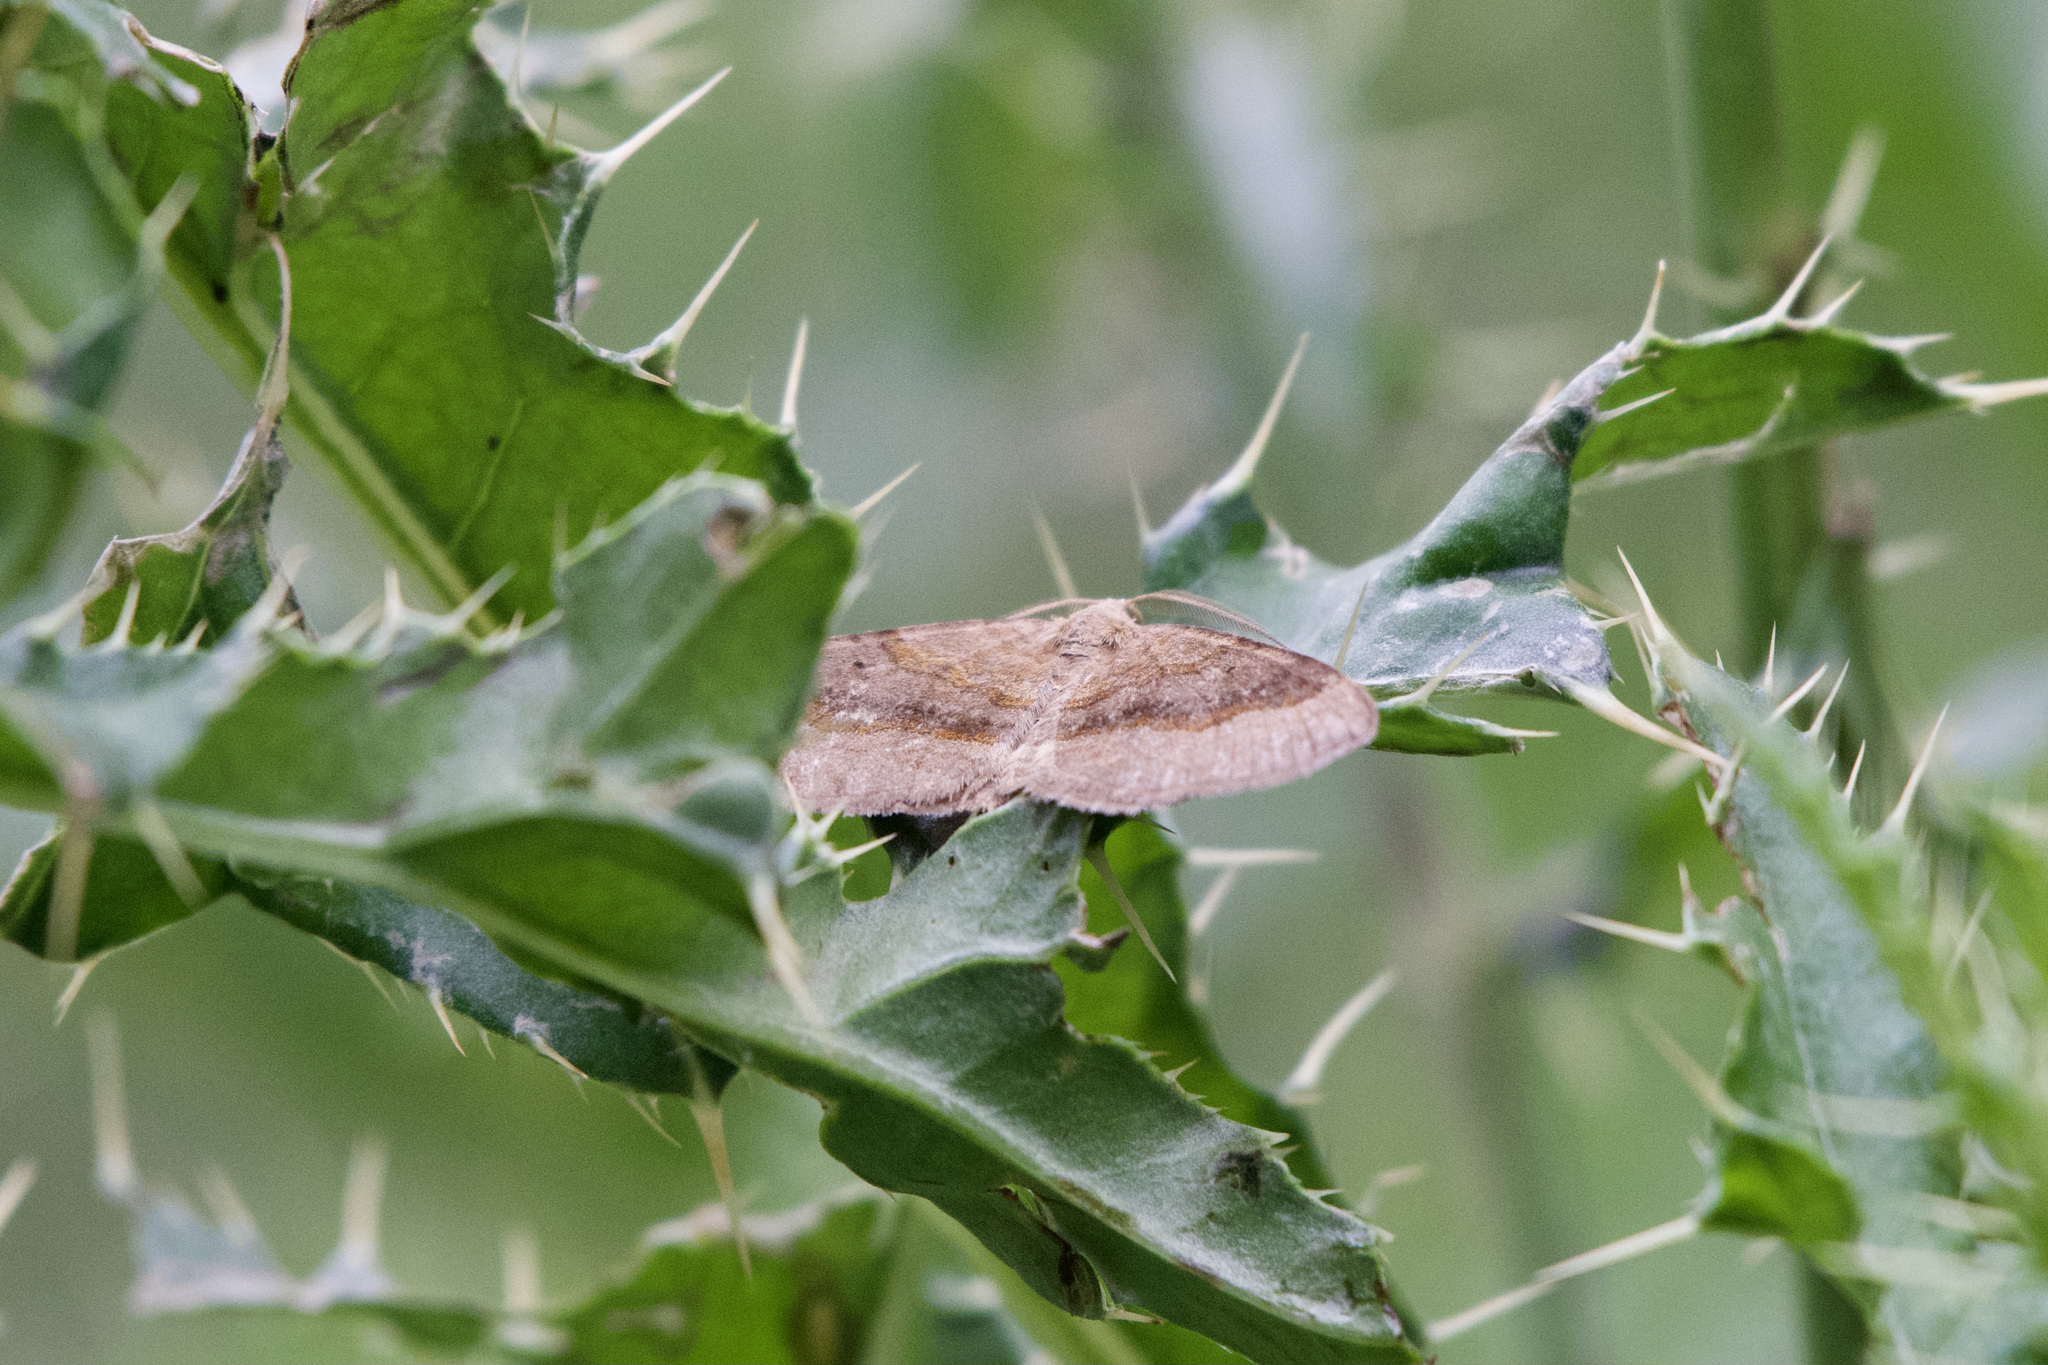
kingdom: Animalia
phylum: Arthropoda
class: Insecta
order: Lepidoptera
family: Geometridae
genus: Scotopteryx
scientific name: Scotopteryx chenopodiata
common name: Shaded broad-bar
